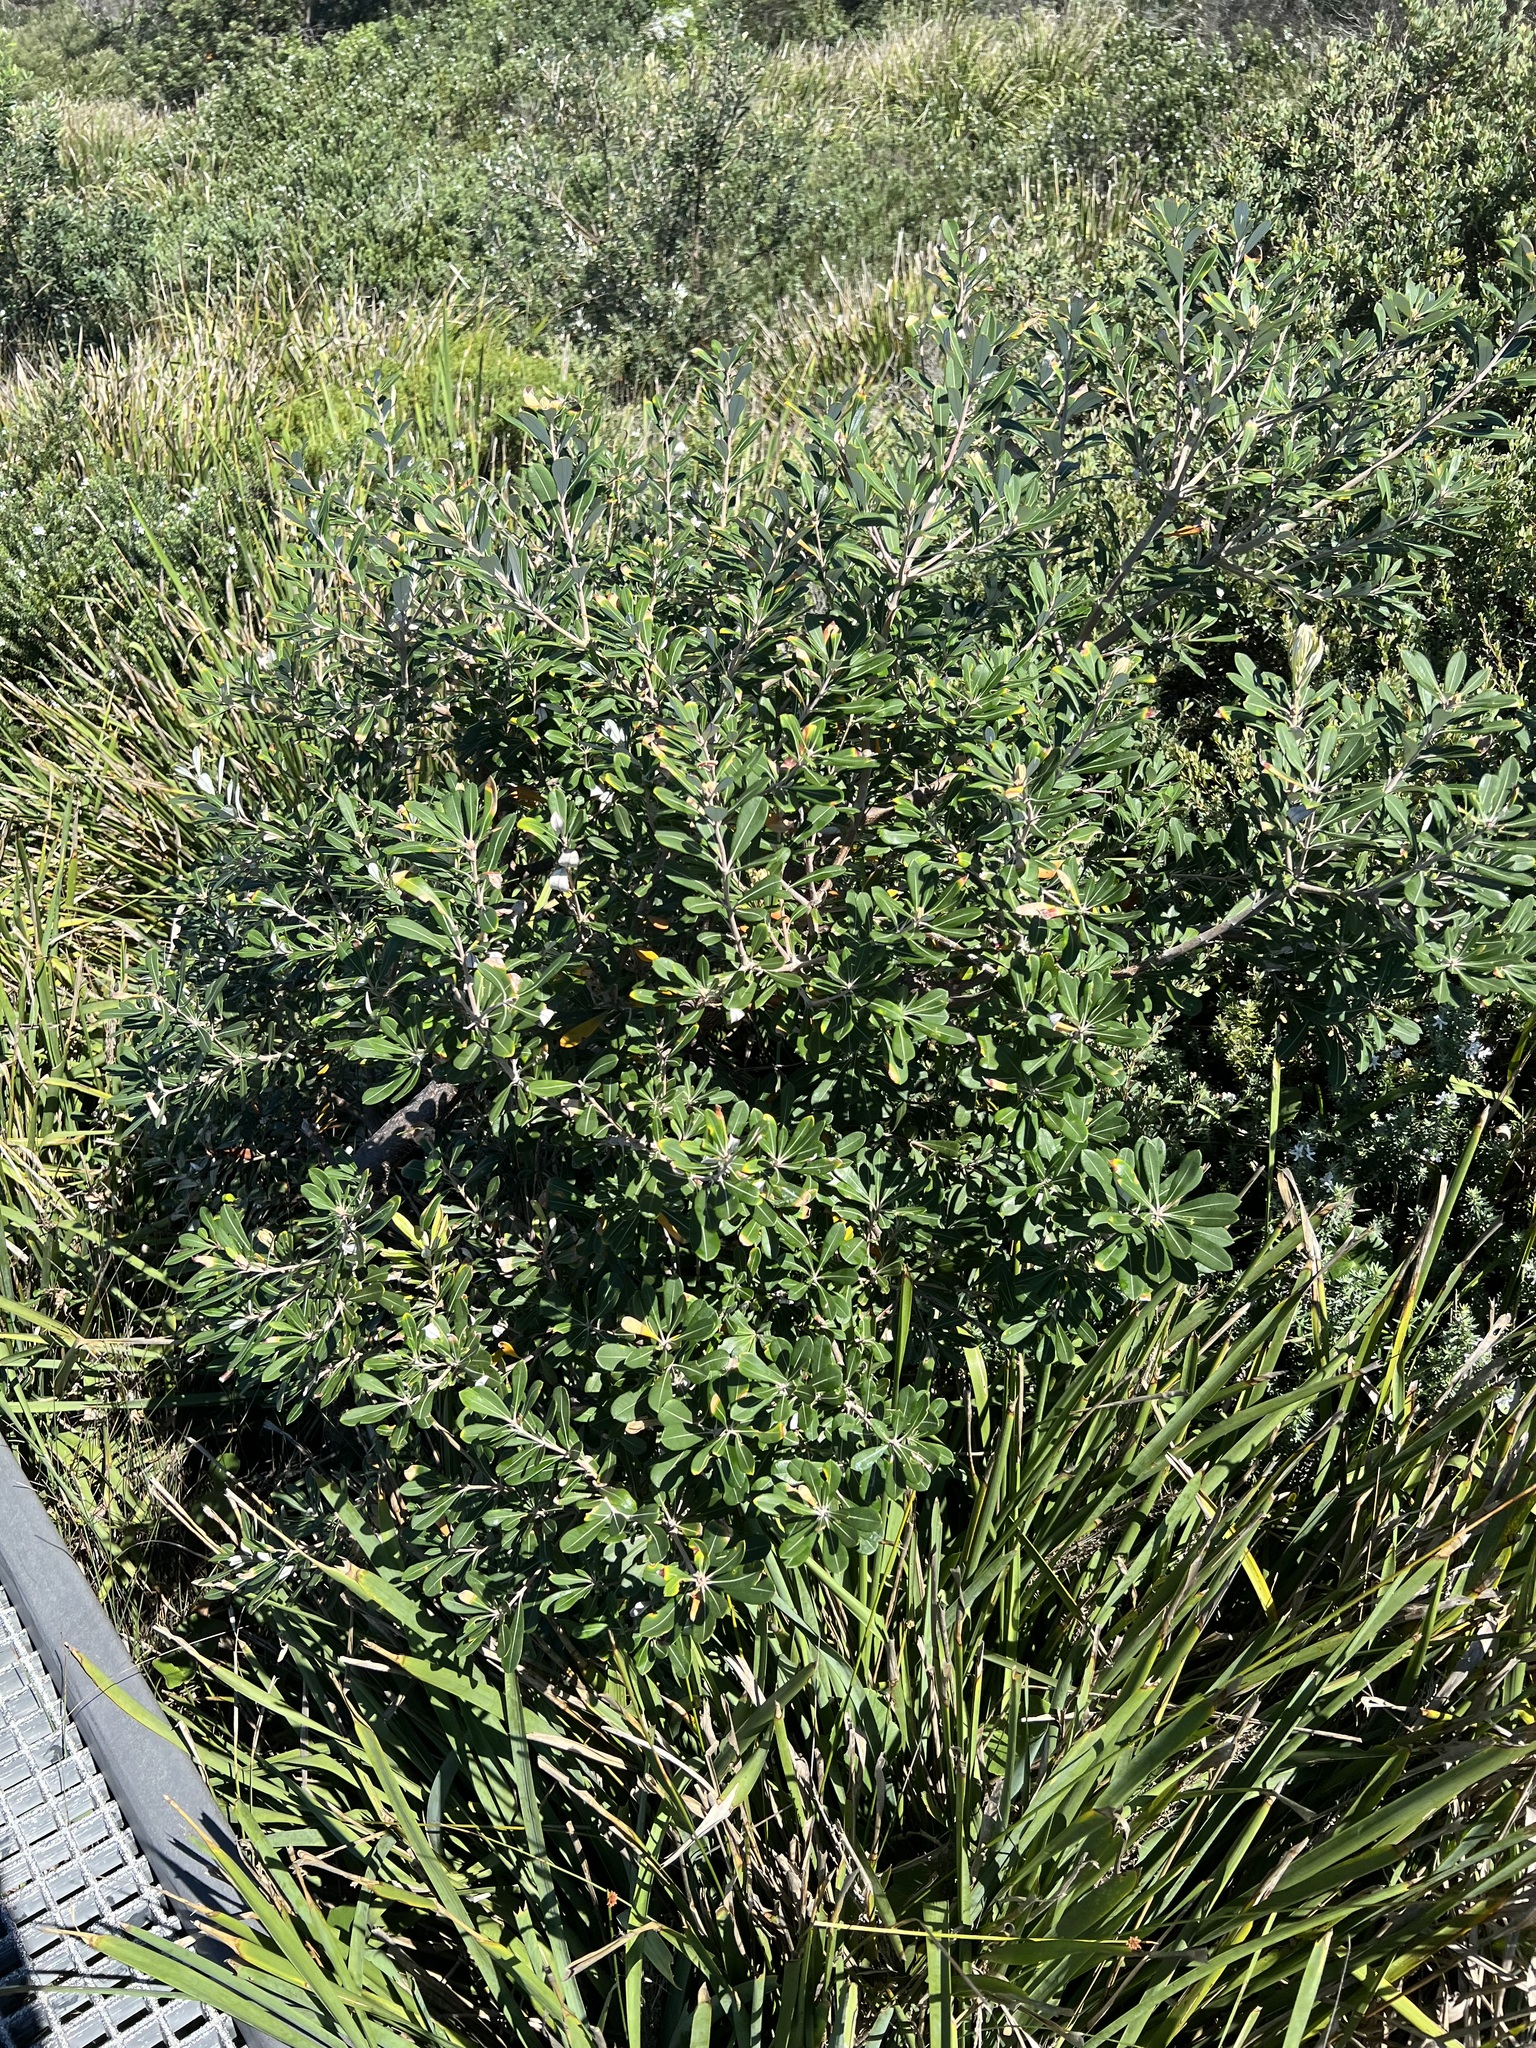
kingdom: Plantae
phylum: Tracheophyta
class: Magnoliopsida
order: Proteales
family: Proteaceae
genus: Banksia
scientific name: Banksia integrifolia
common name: White-honeysuckle
